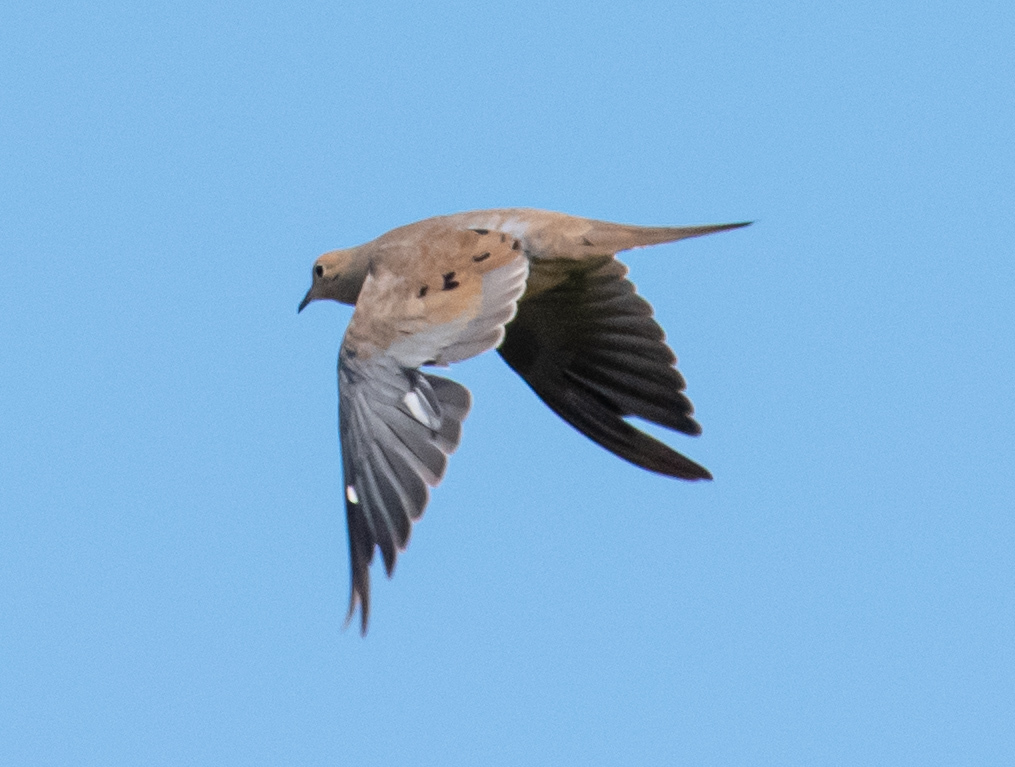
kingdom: Animalia
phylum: Chordata
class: Aves
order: Columbiformes
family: Columbidae
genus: Zenaida
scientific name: Zenaida macroura
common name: Mourning dove
